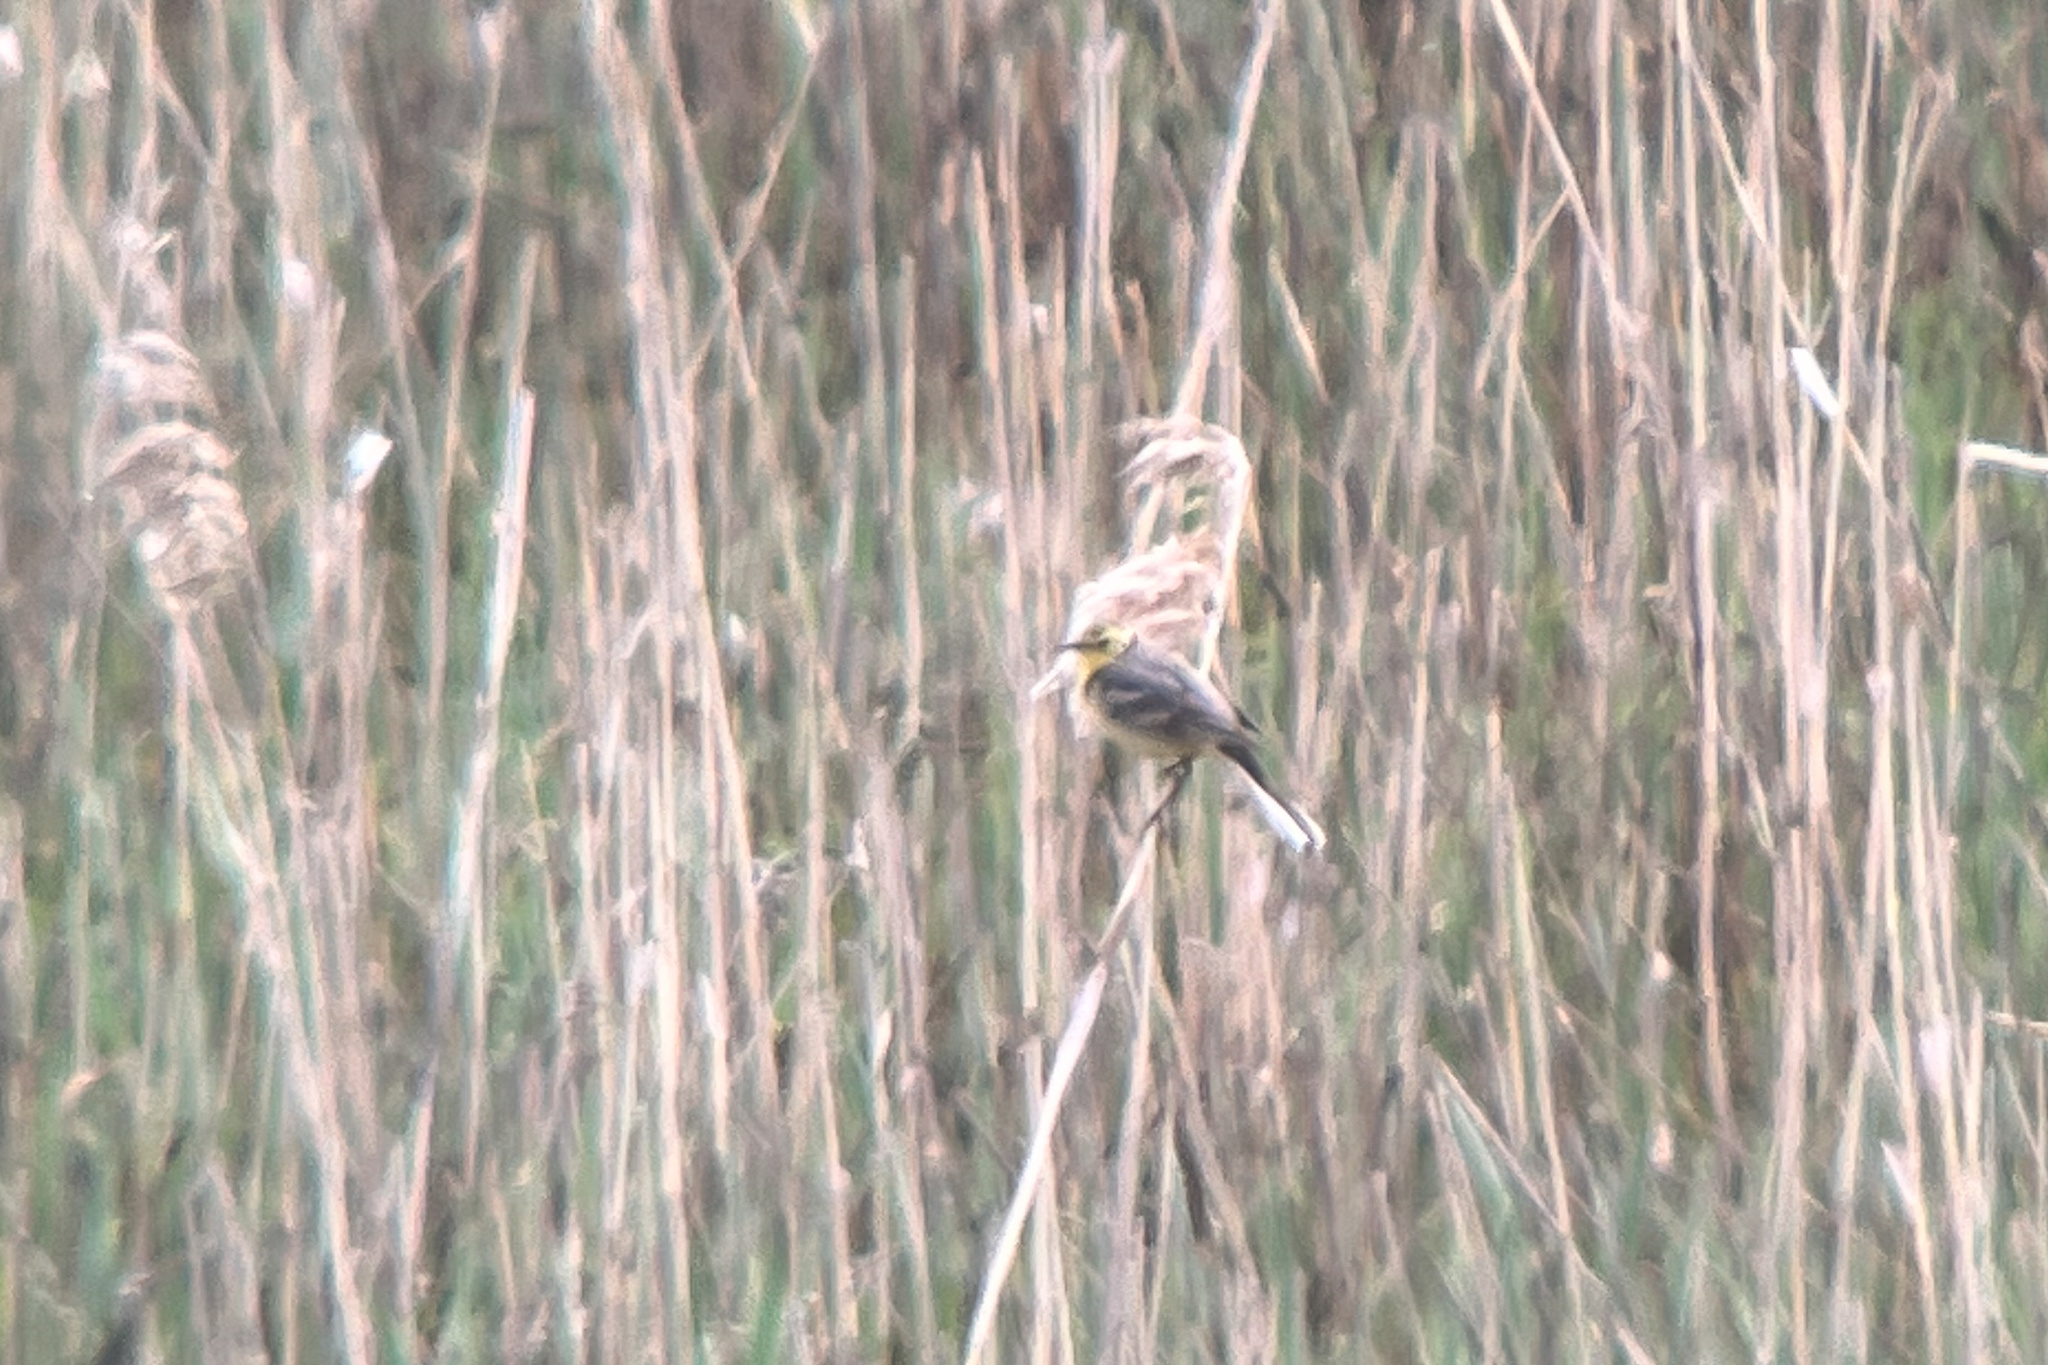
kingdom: Animalia
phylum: Chordata
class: Aves
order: Passeriformes
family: Motacillidae
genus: Motacilla
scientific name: Motacilla citreola
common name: Citrine wagtail
